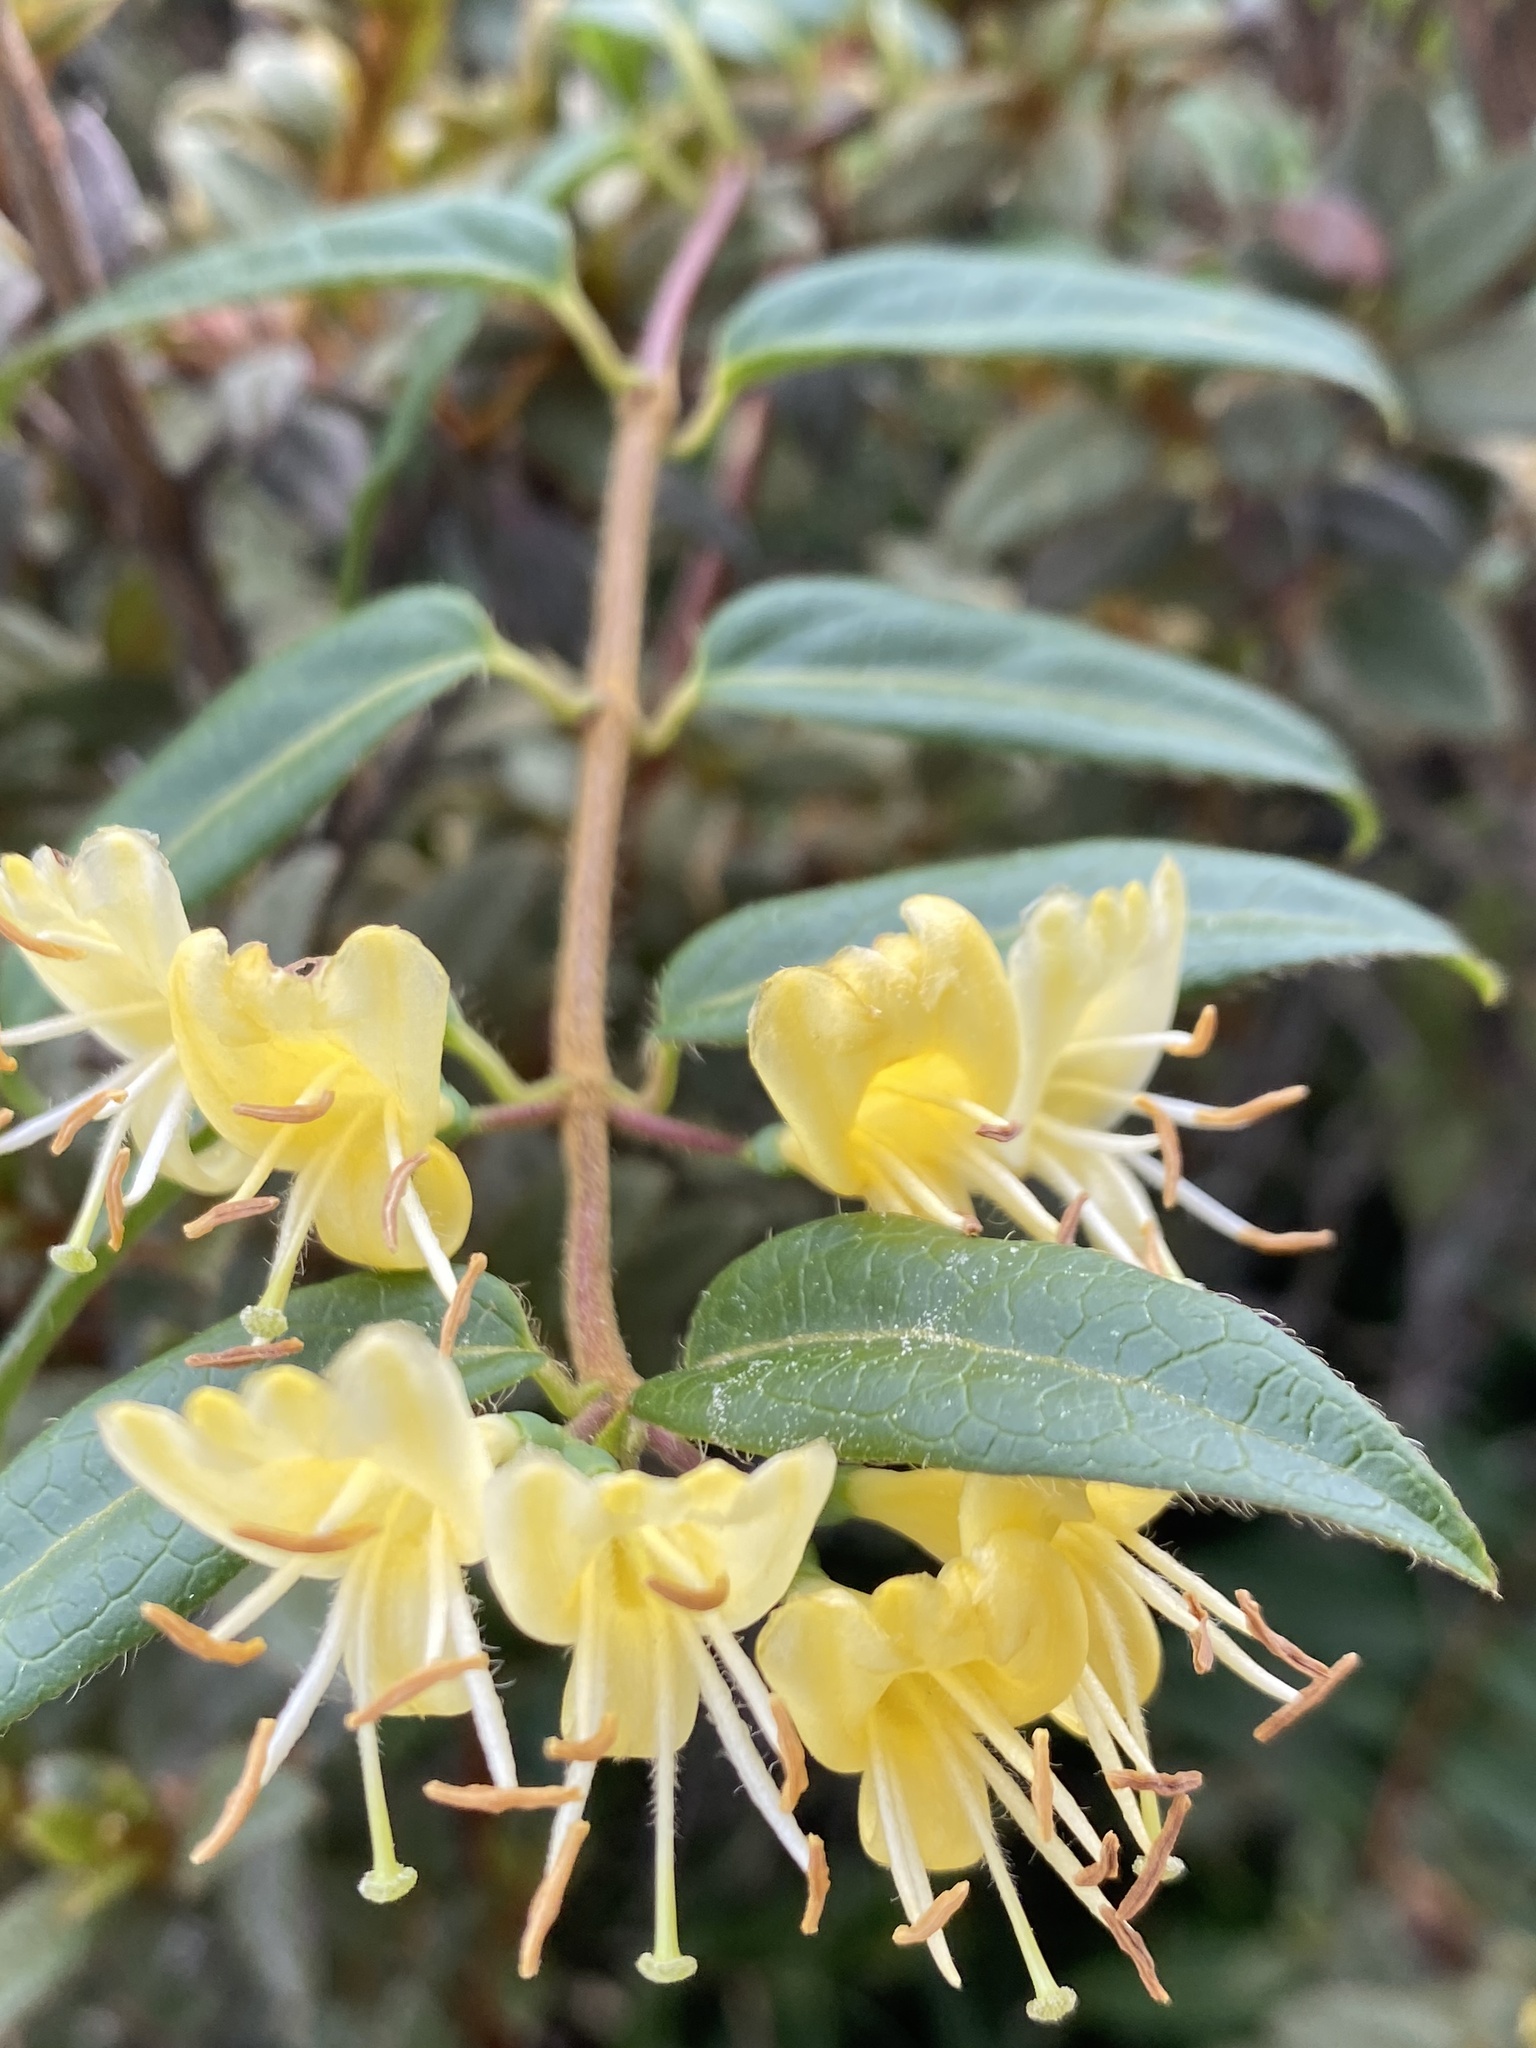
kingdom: Plantae
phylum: Tracheophyta
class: Magnoliopsida
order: Dipsacales
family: Caprifoliaceae
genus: Lonicera
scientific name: Lonicera acuminata
